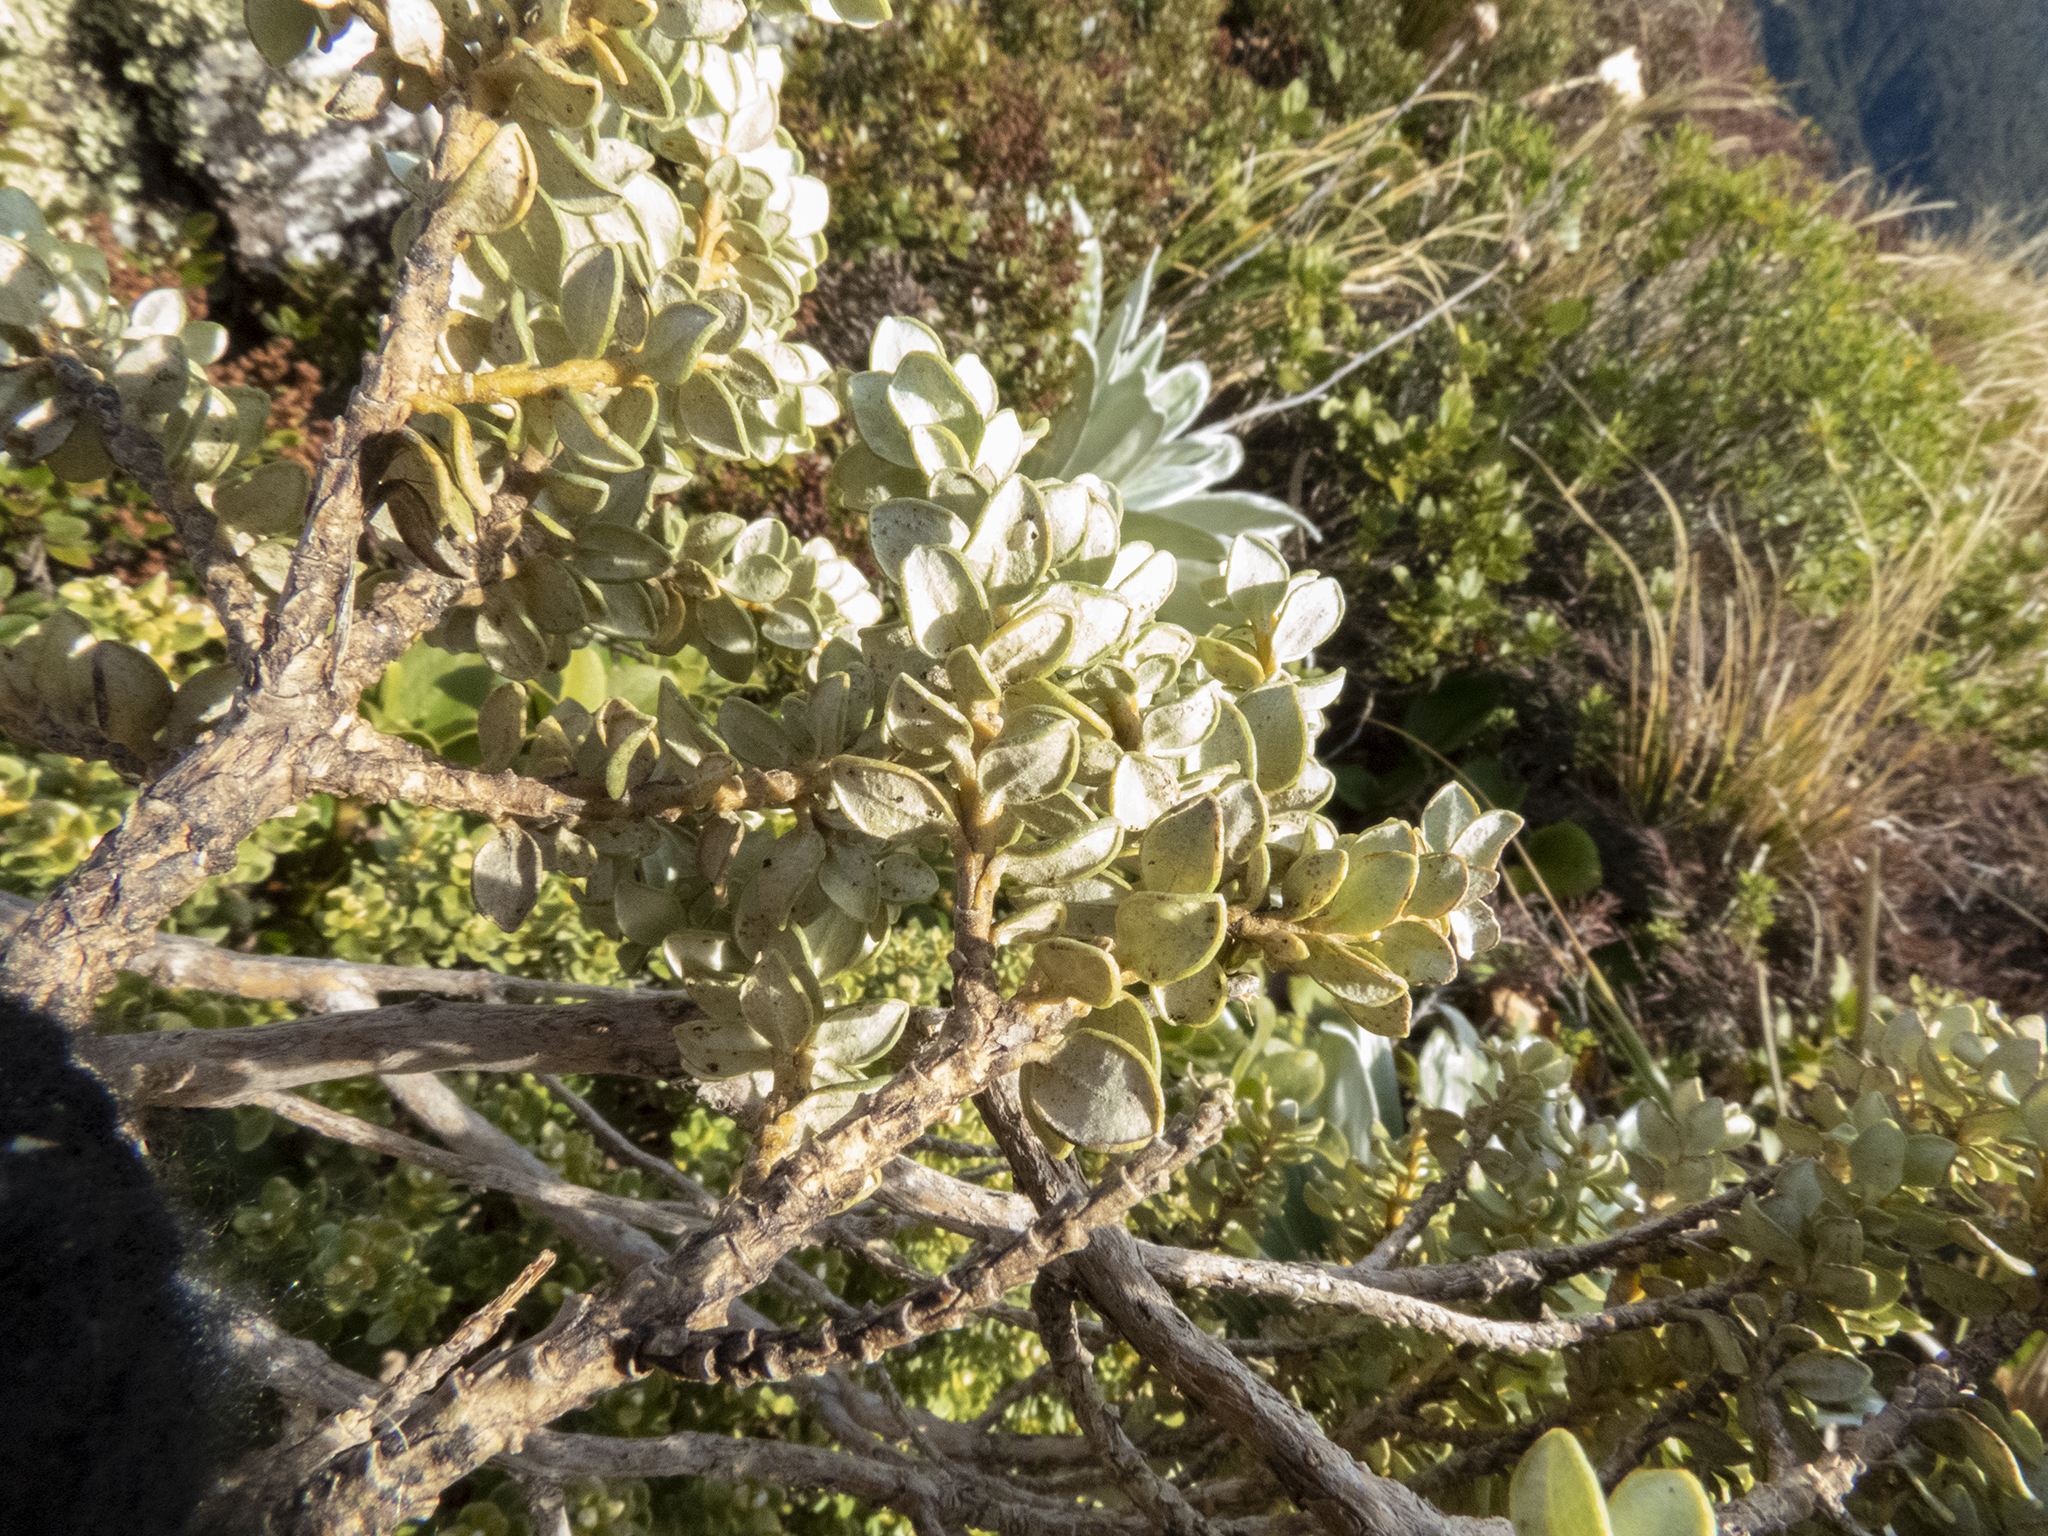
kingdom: Plantae
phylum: Tracheophyta
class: Magnoliopsida
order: Asterales
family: Asteraceae
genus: Olearia
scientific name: Olearia nummularifolia
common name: Sticky daisybush
